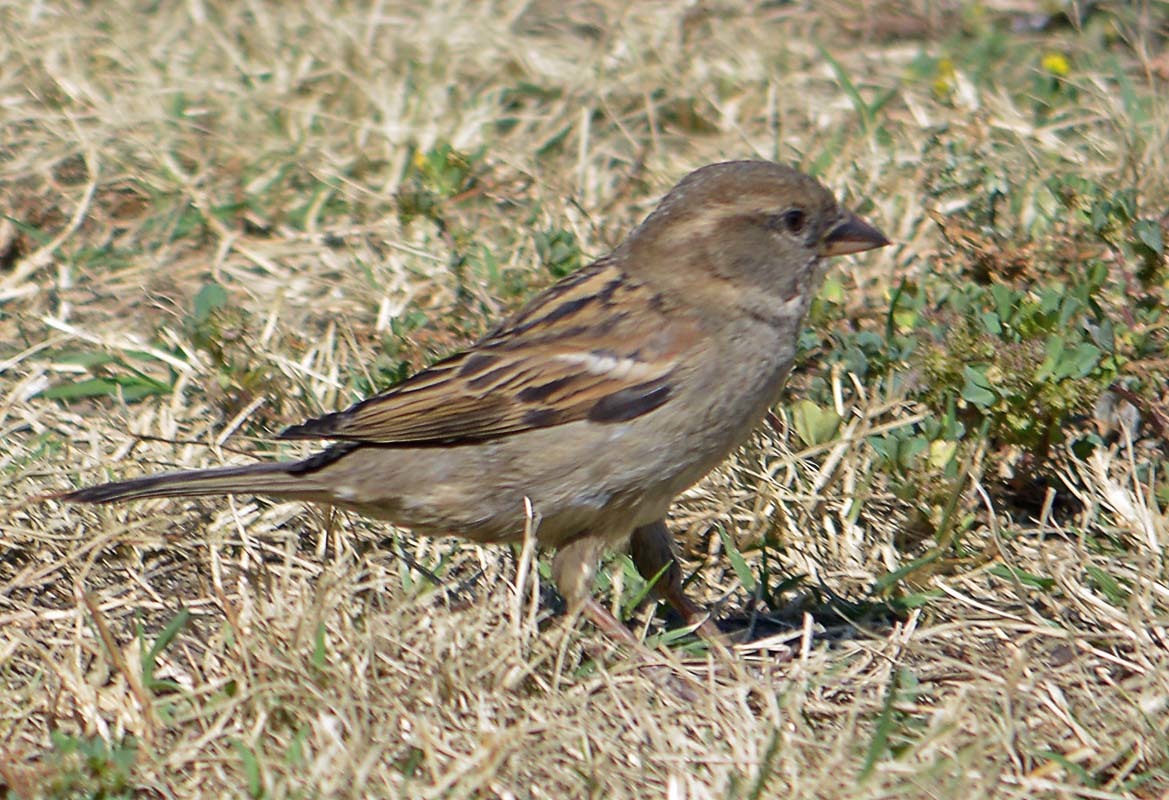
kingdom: Animalia
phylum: Chordata
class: Aves
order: Passeriformes
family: Passeridae
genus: Passer
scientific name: Passer domesticus
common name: House sparrow
